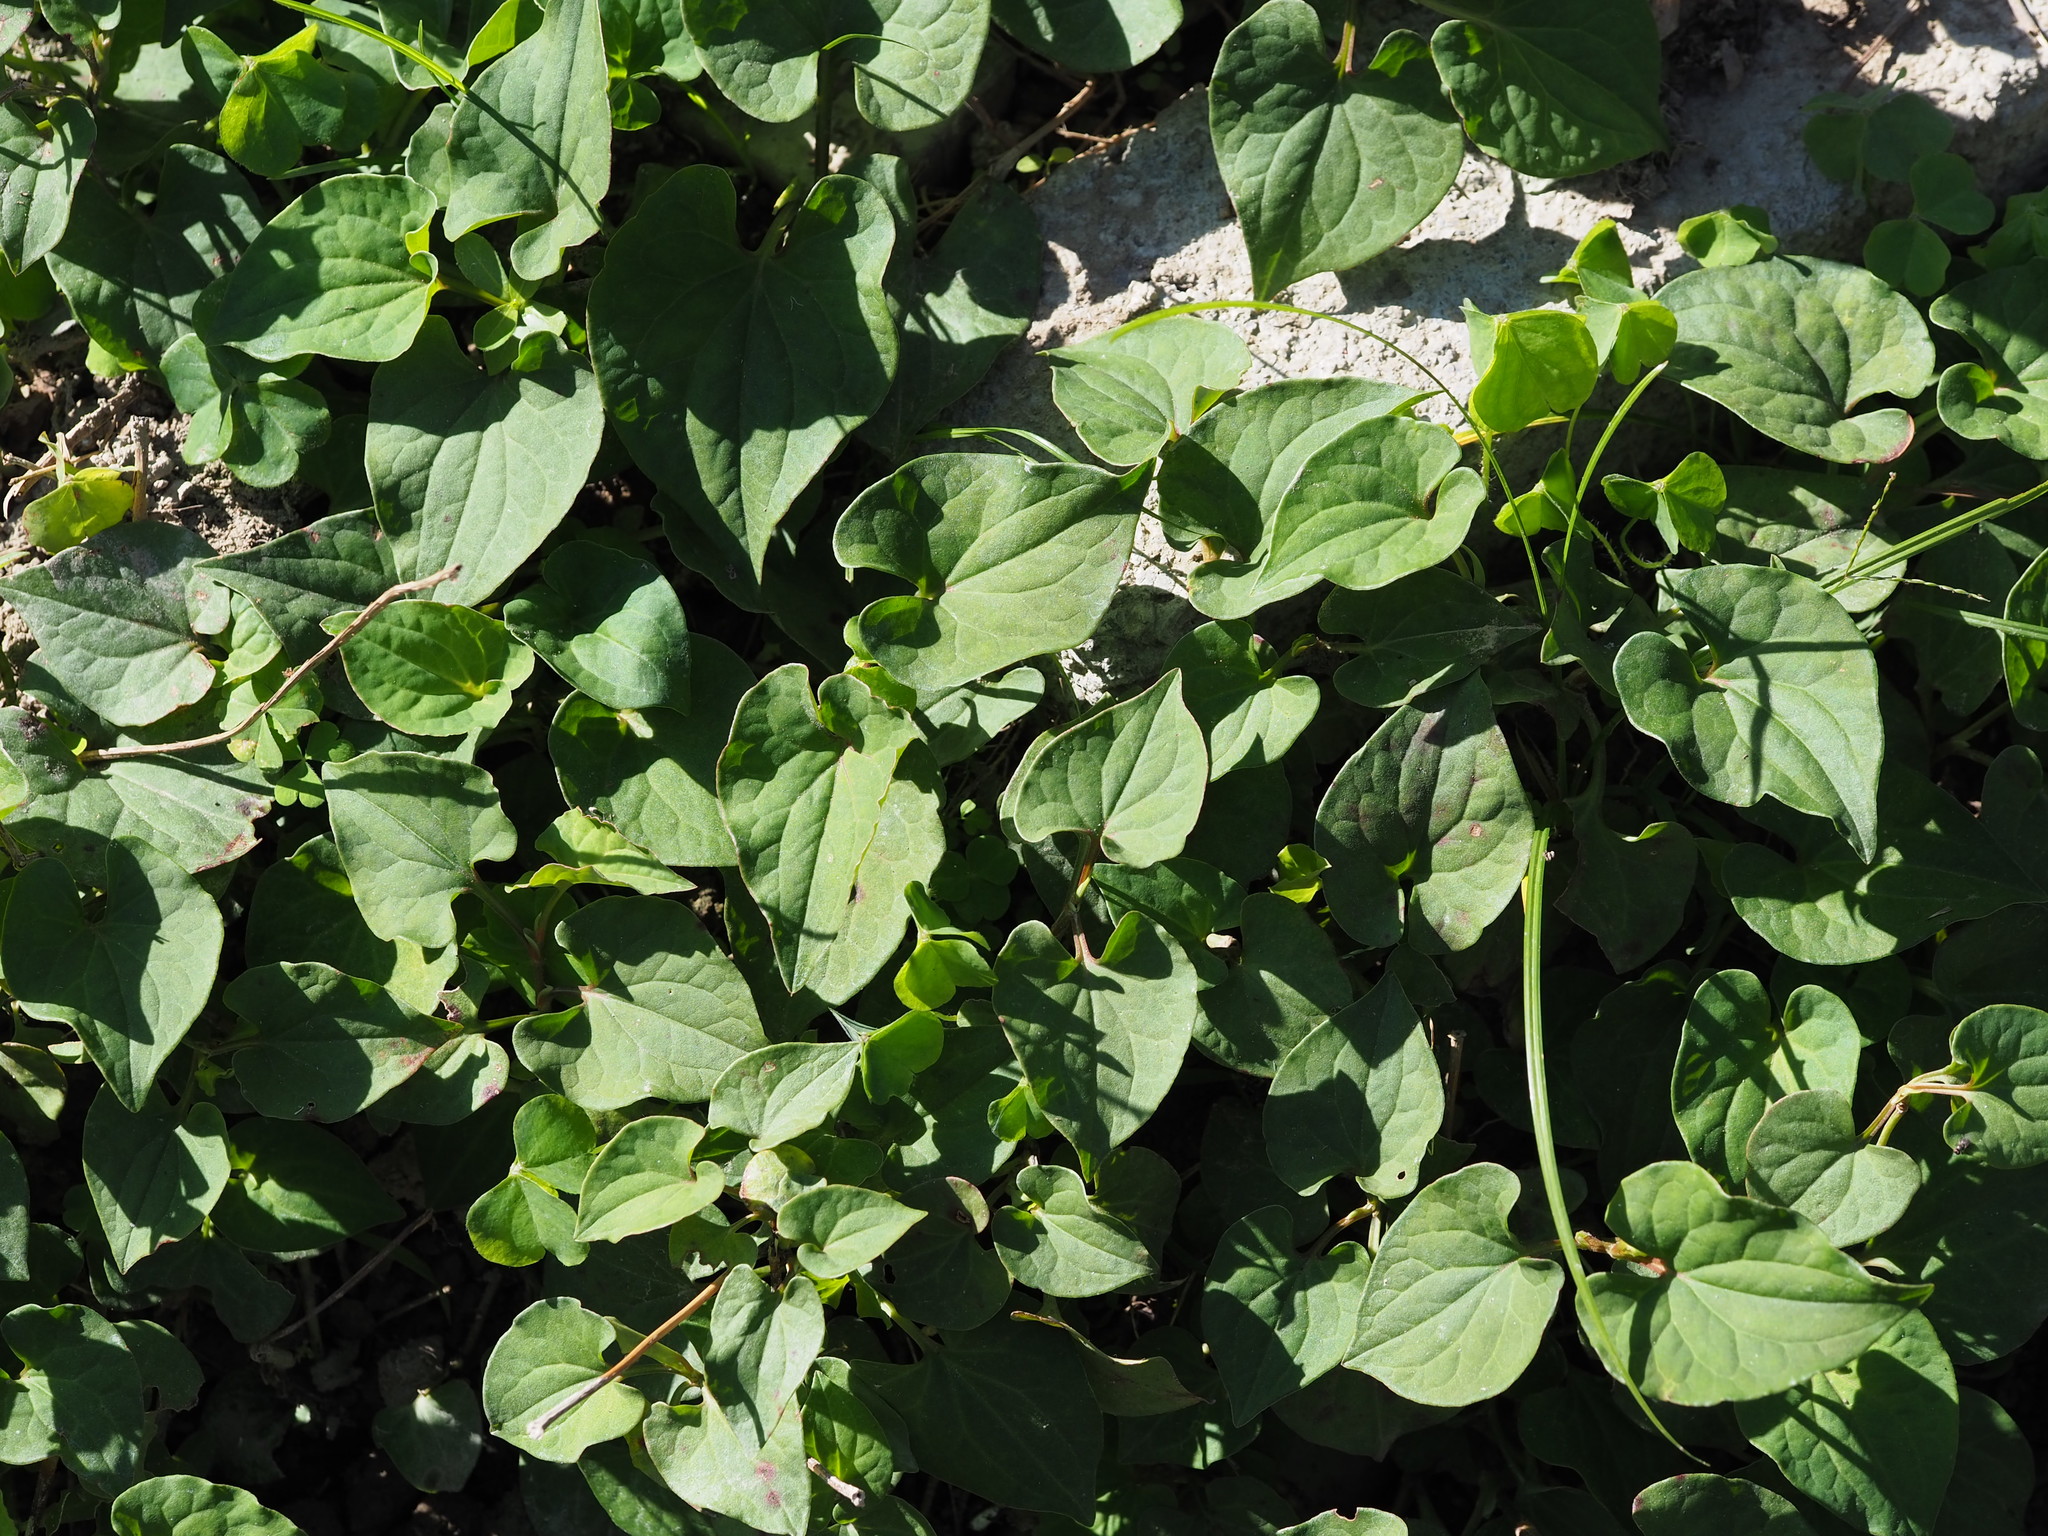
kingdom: Plantae
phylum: Tracheophyta
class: Magnoliopsida
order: Piperales
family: Saururaceae
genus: Houttuynia
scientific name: Houttuynia cordata
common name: Chameleon
